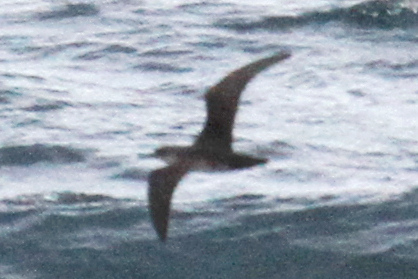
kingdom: Animalia
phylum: Chordata
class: Aves
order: Procellariiformes
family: Procellariidae
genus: Puffinus
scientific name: Puffinus opisthomelas
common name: Black-vented shearwater
